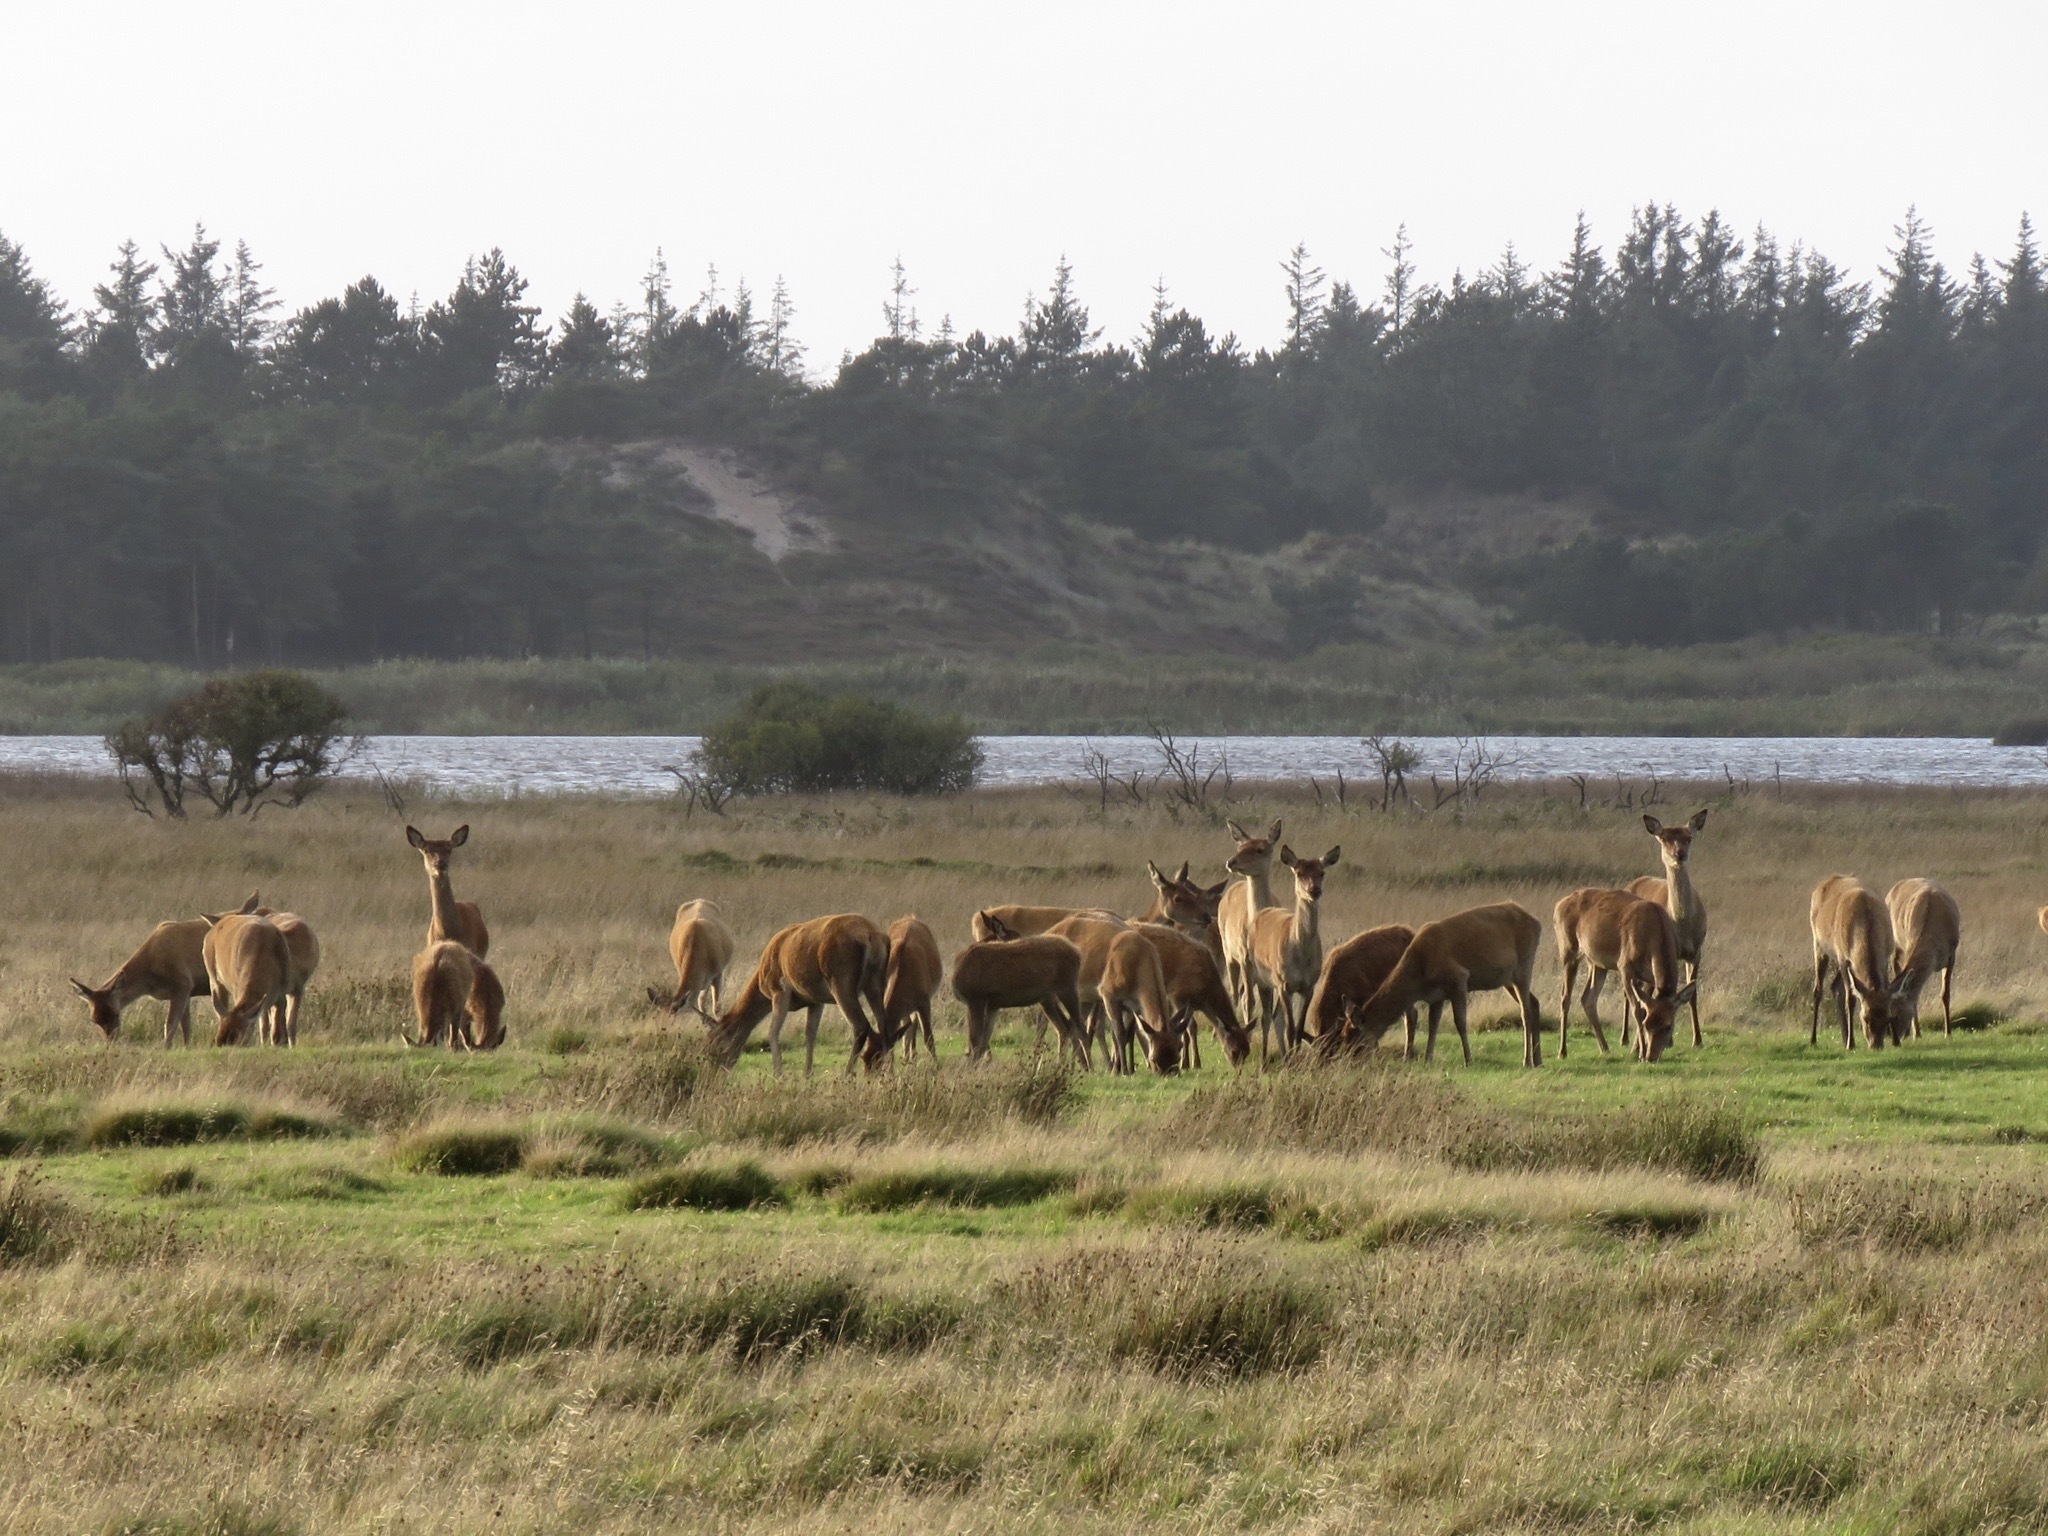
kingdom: Animalia
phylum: Chordata
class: Mammalia
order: Artiodactyla
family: Cervidae
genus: Cervus
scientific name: Cervus elaphus
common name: Red deer
